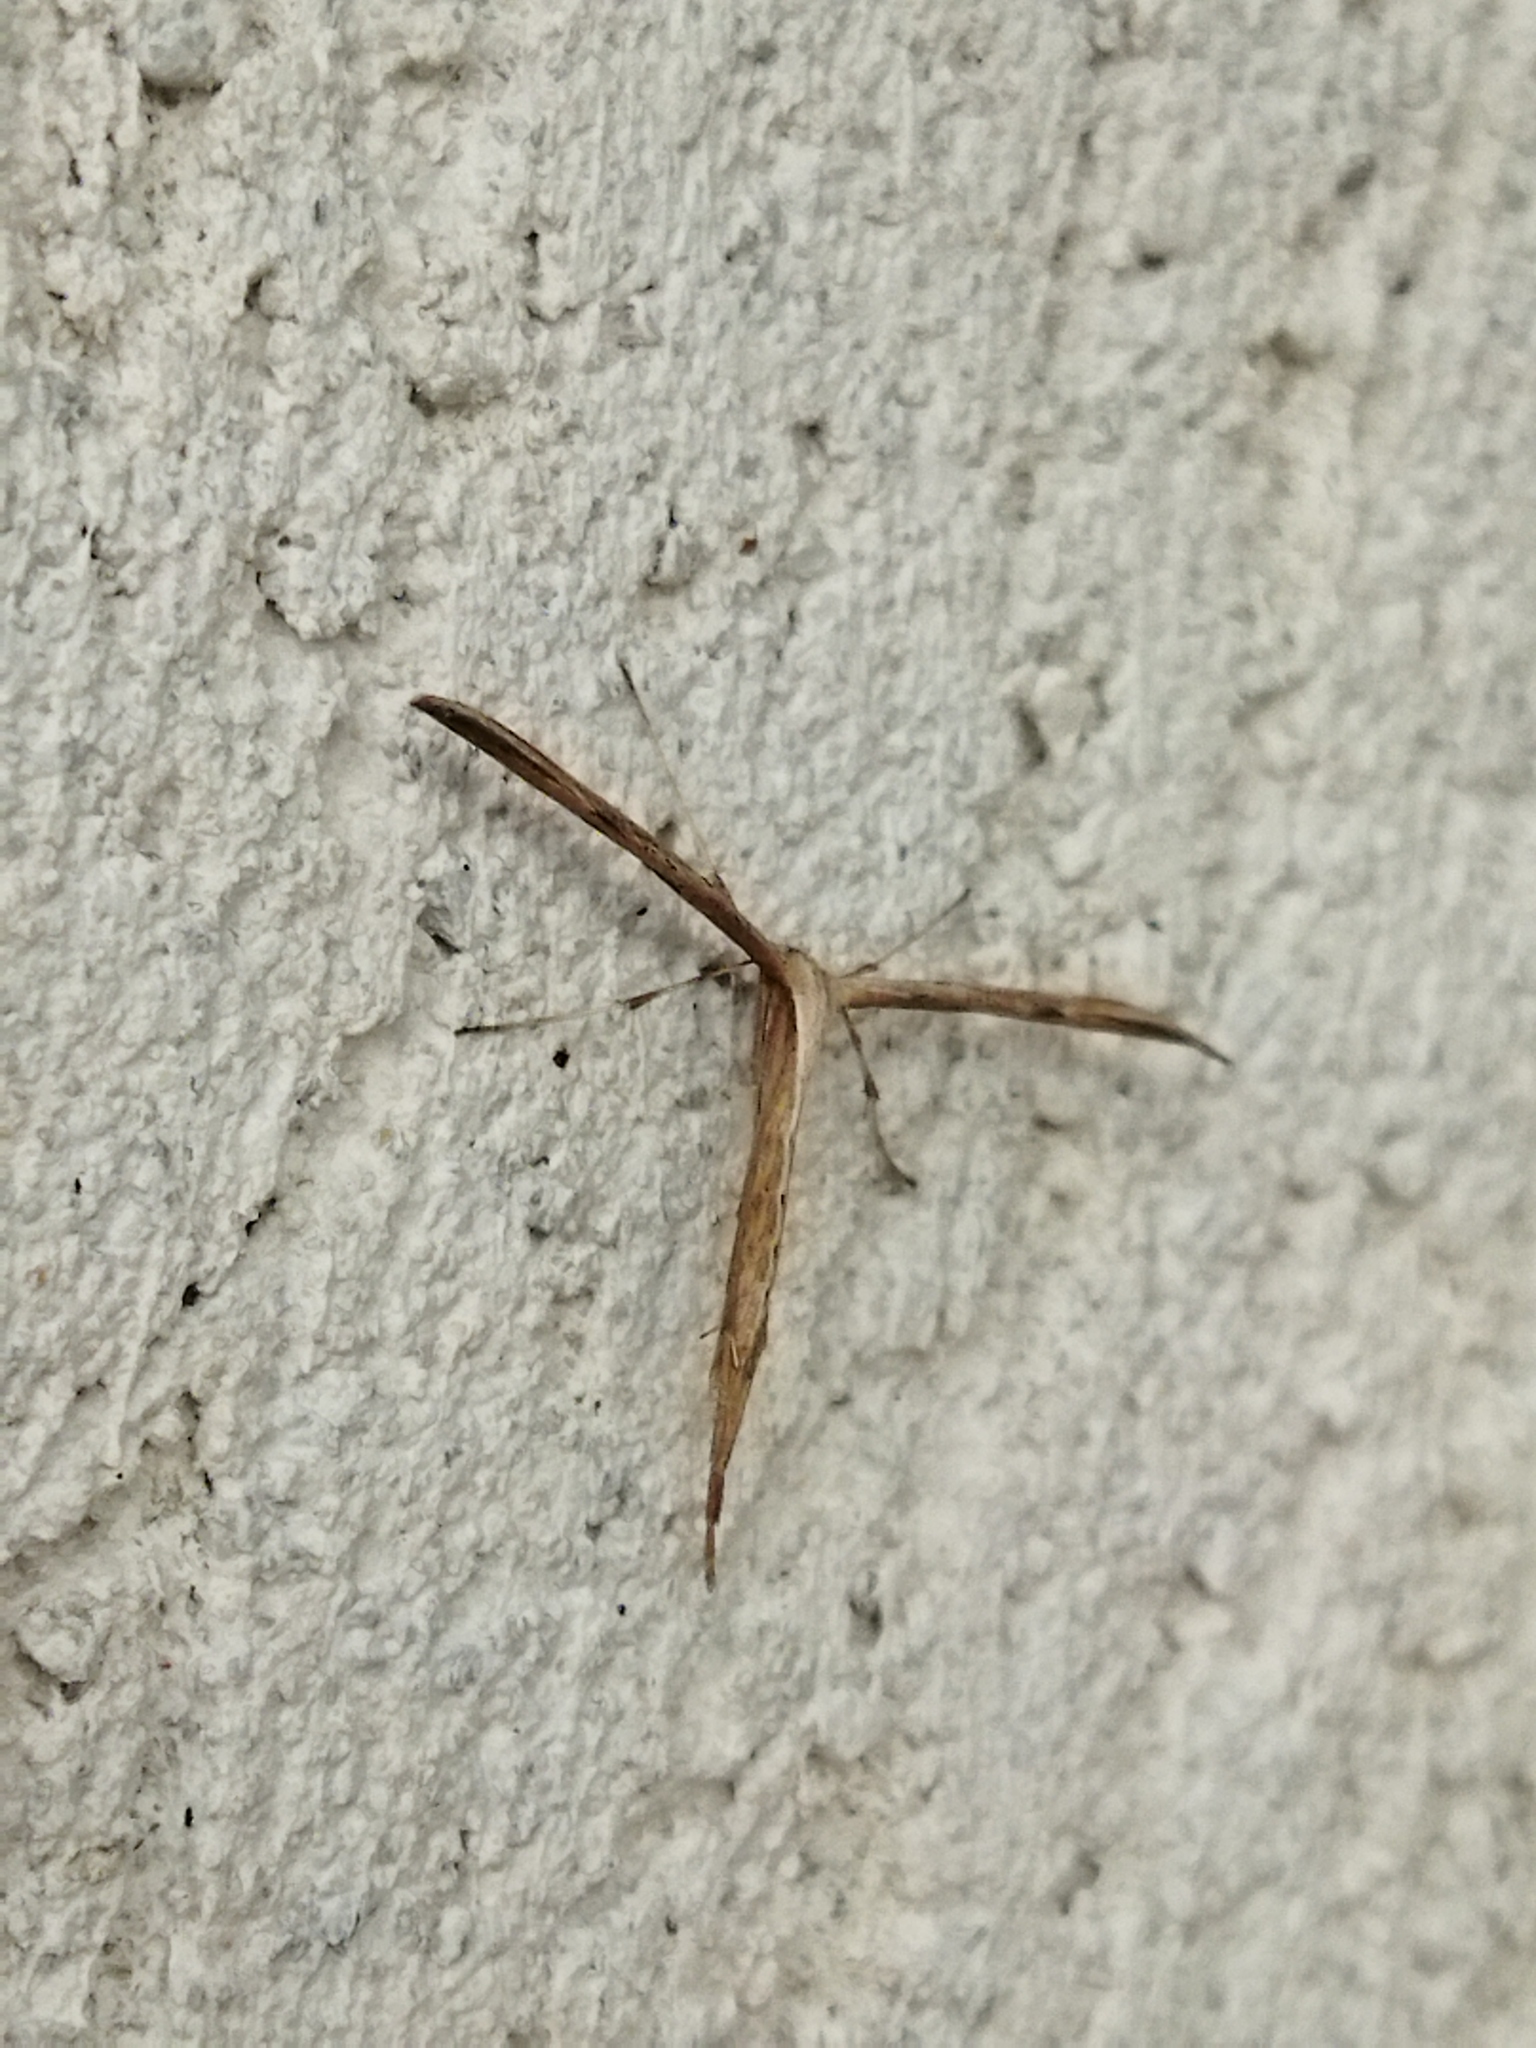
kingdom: Animalia
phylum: Arthropoda
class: Insecta
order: Lepidoptera
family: Pterophoridae
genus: Emmelina
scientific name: Emmelina monodactyla
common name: Common plume
